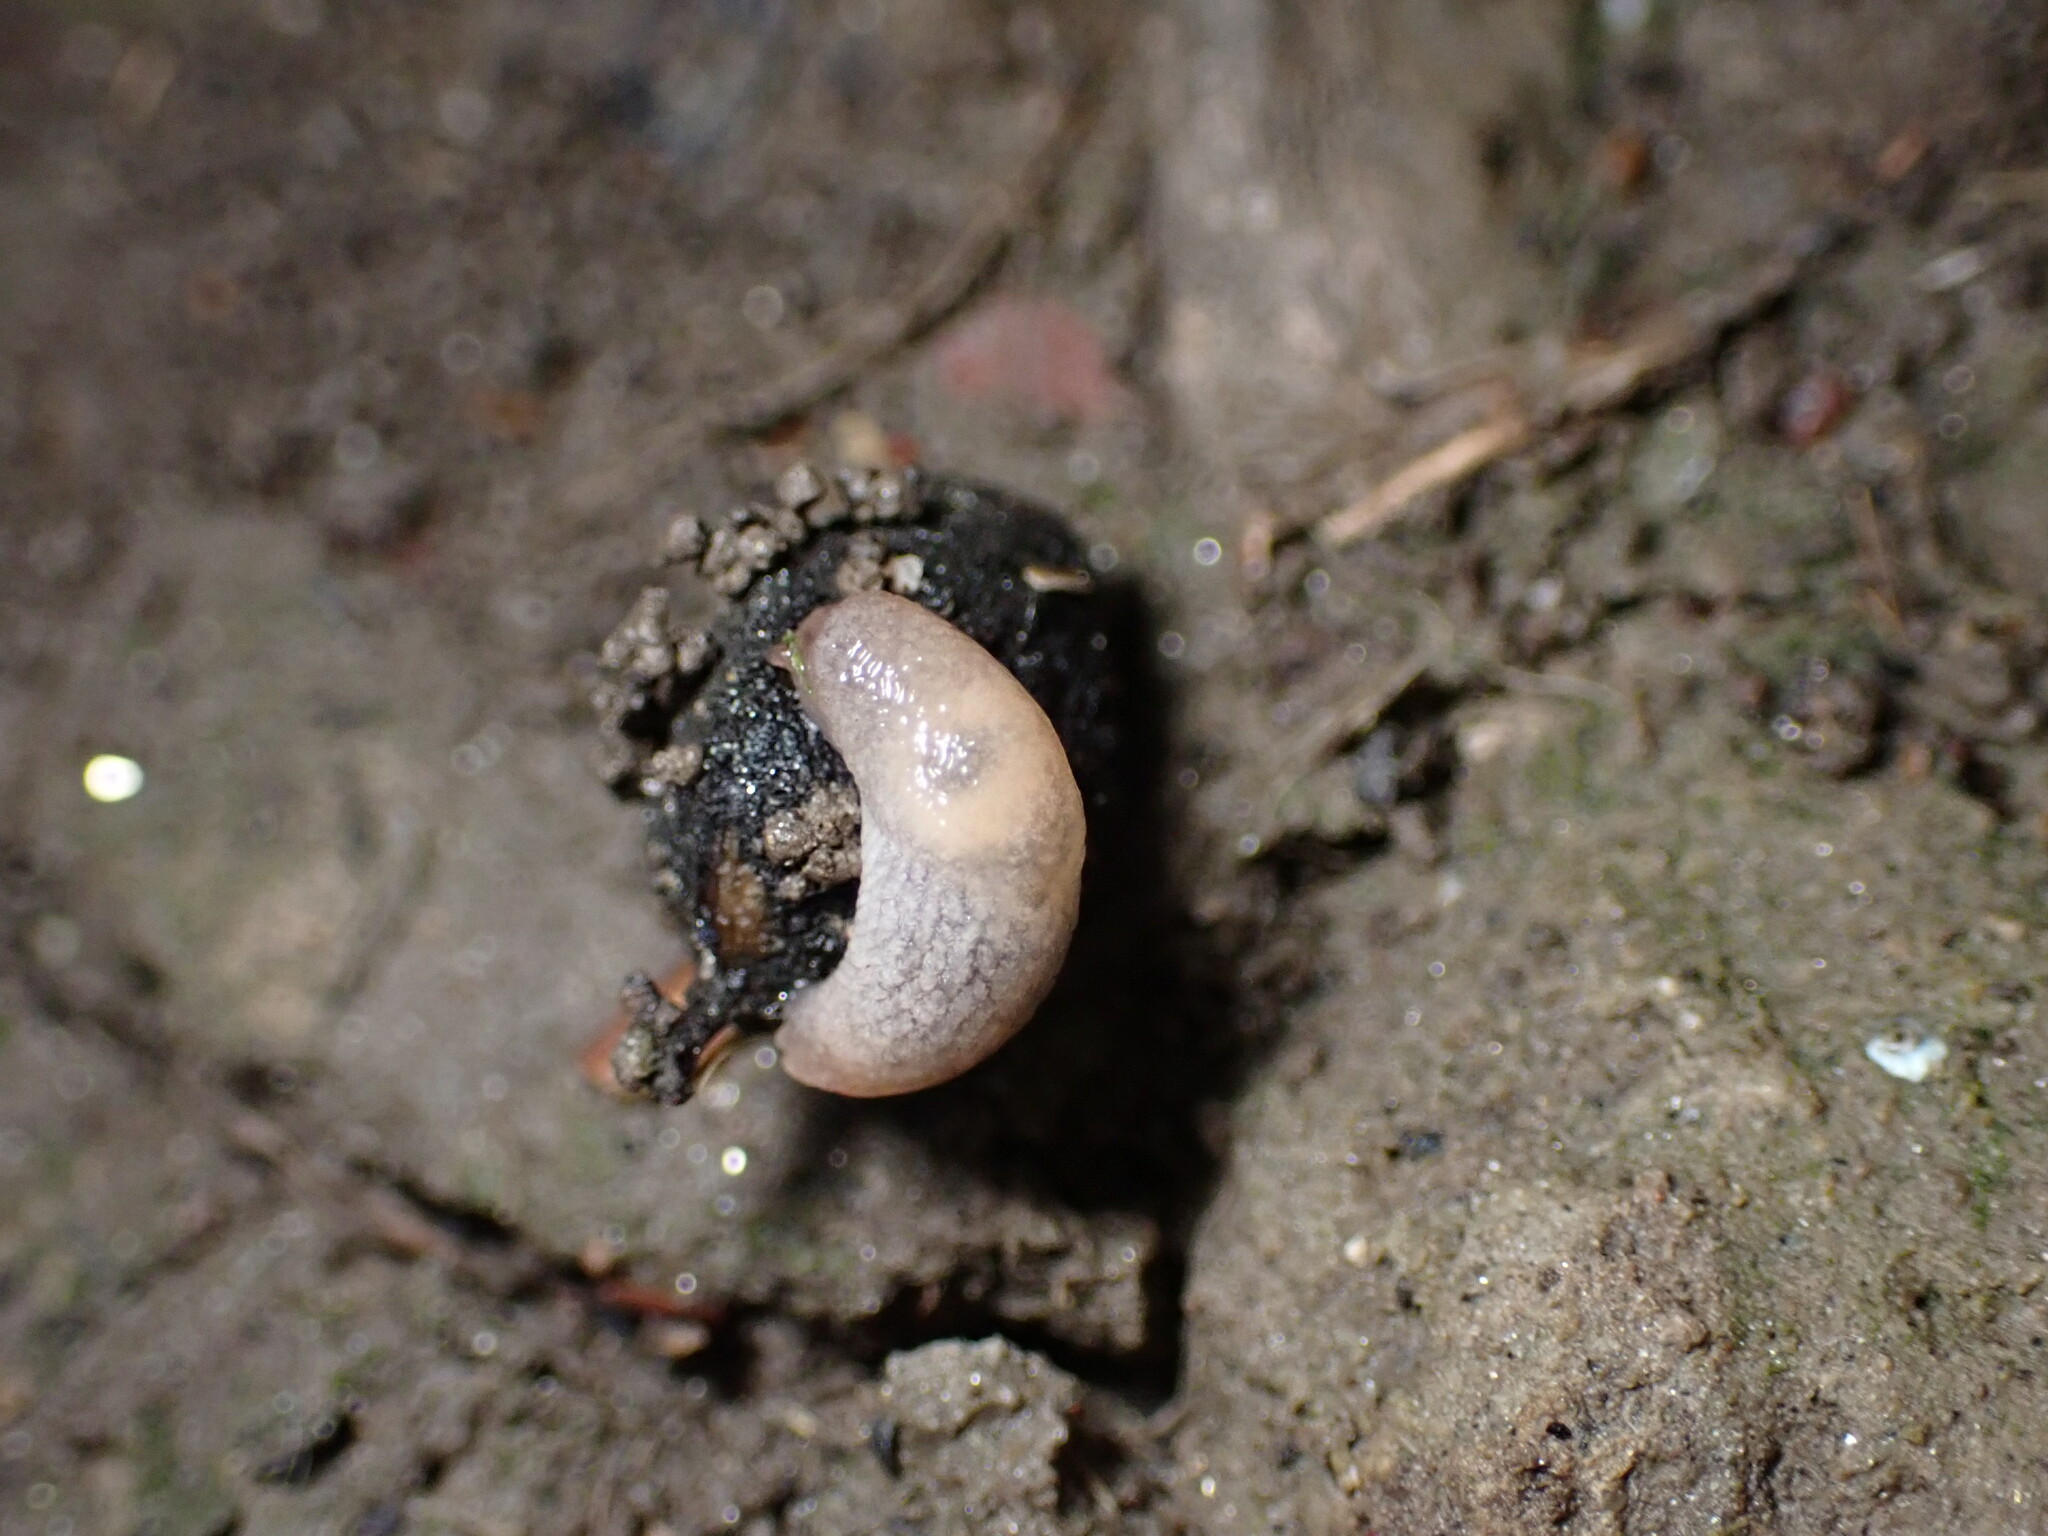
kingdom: Animalia
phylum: Mollusca
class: Gastropoda
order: Stylommatophora
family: Agriolimacidae
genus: Deroceras
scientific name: Deroceras reticulatum
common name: Gray field slug
